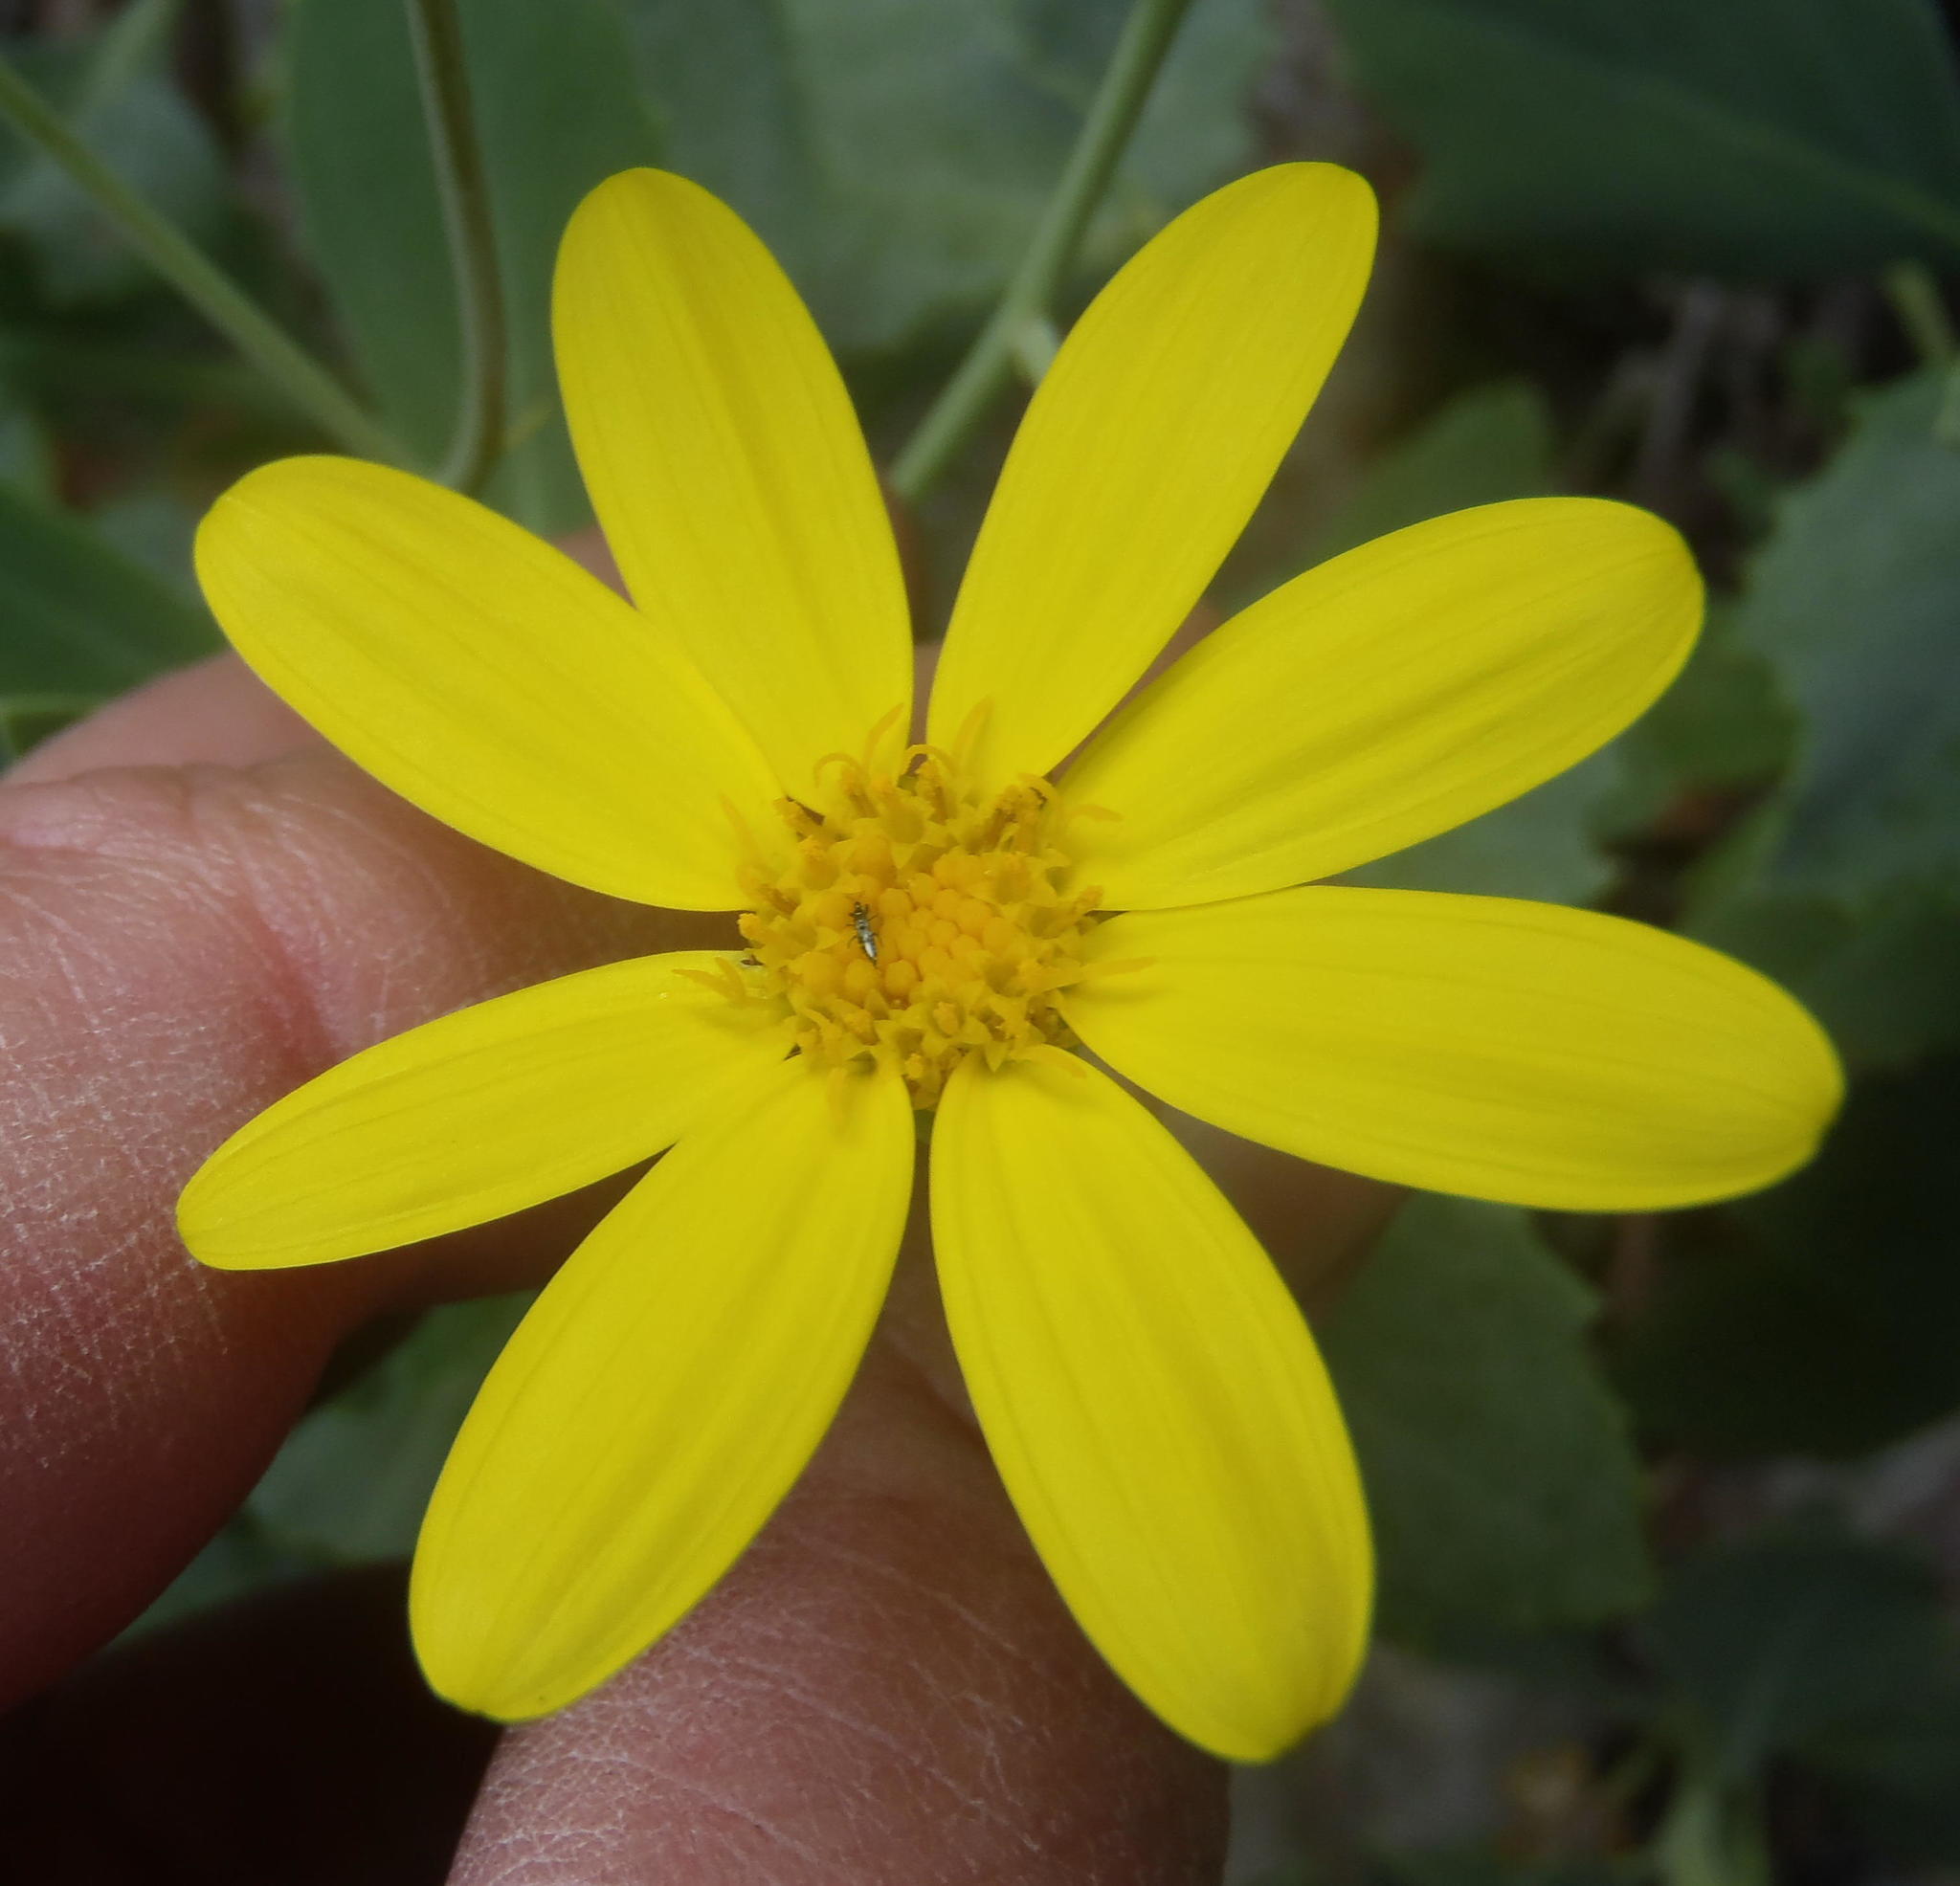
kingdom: Plantae
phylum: Tracheophyta
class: Magnoliopsida
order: Asterales
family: Asteraceae
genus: Othonna
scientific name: Othonna osteospermoides
